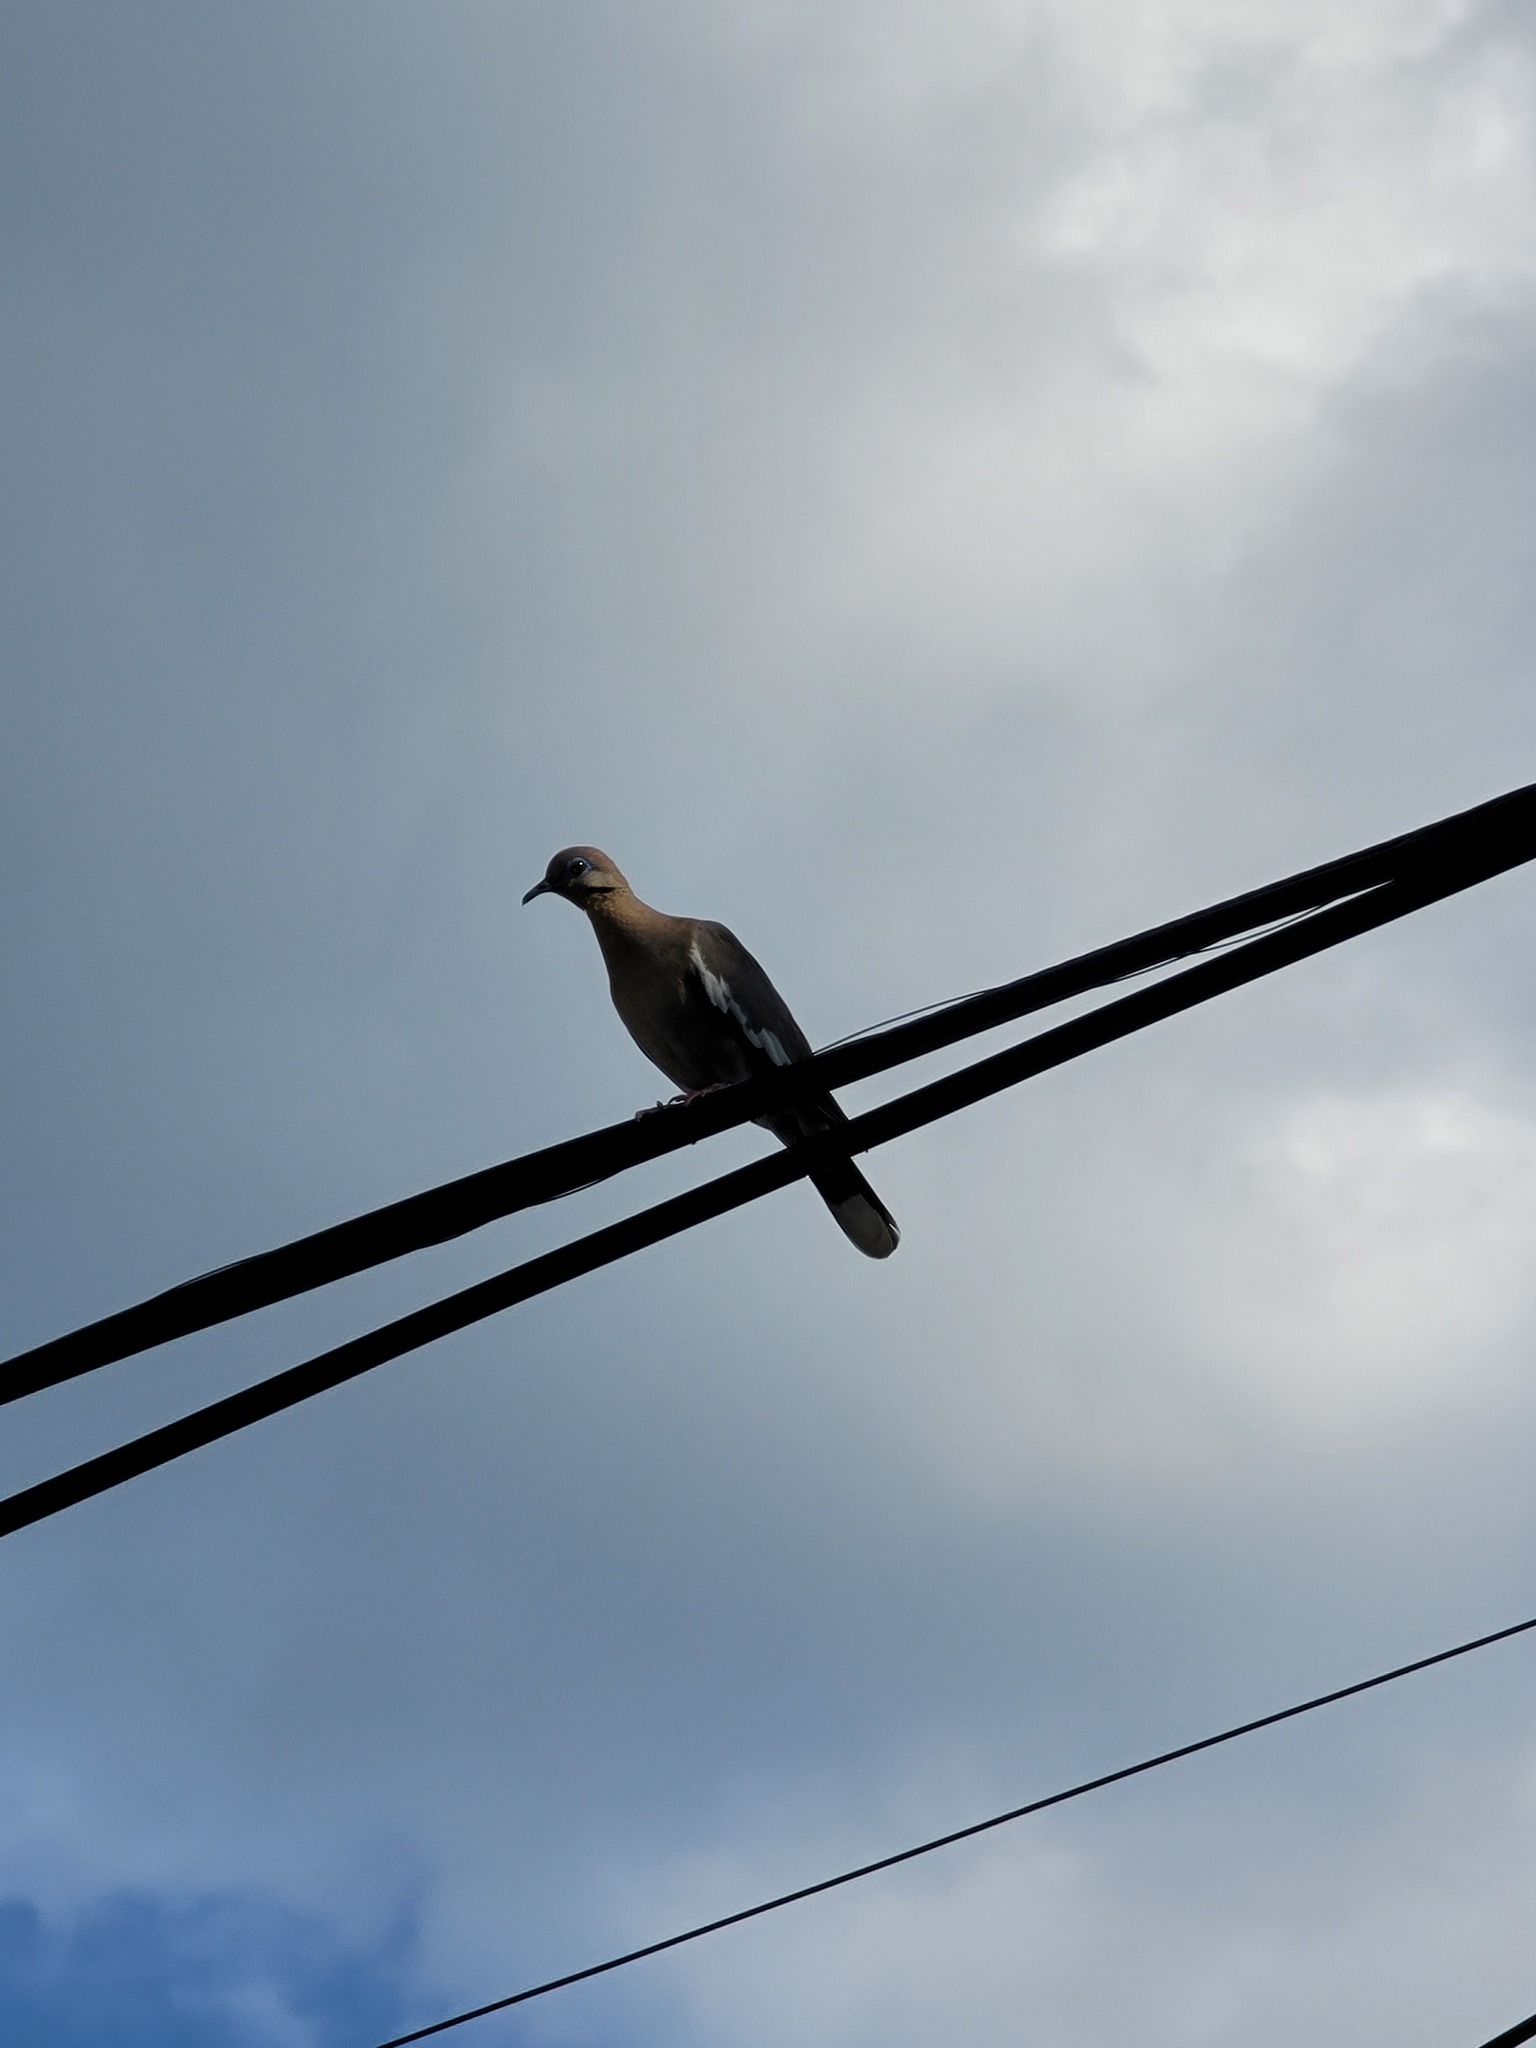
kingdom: Animalia
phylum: Chordata
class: Aves
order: Columbiformes
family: Columbidae
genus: Zenaida
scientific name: Zenaida asiatica
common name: White-winged dove
